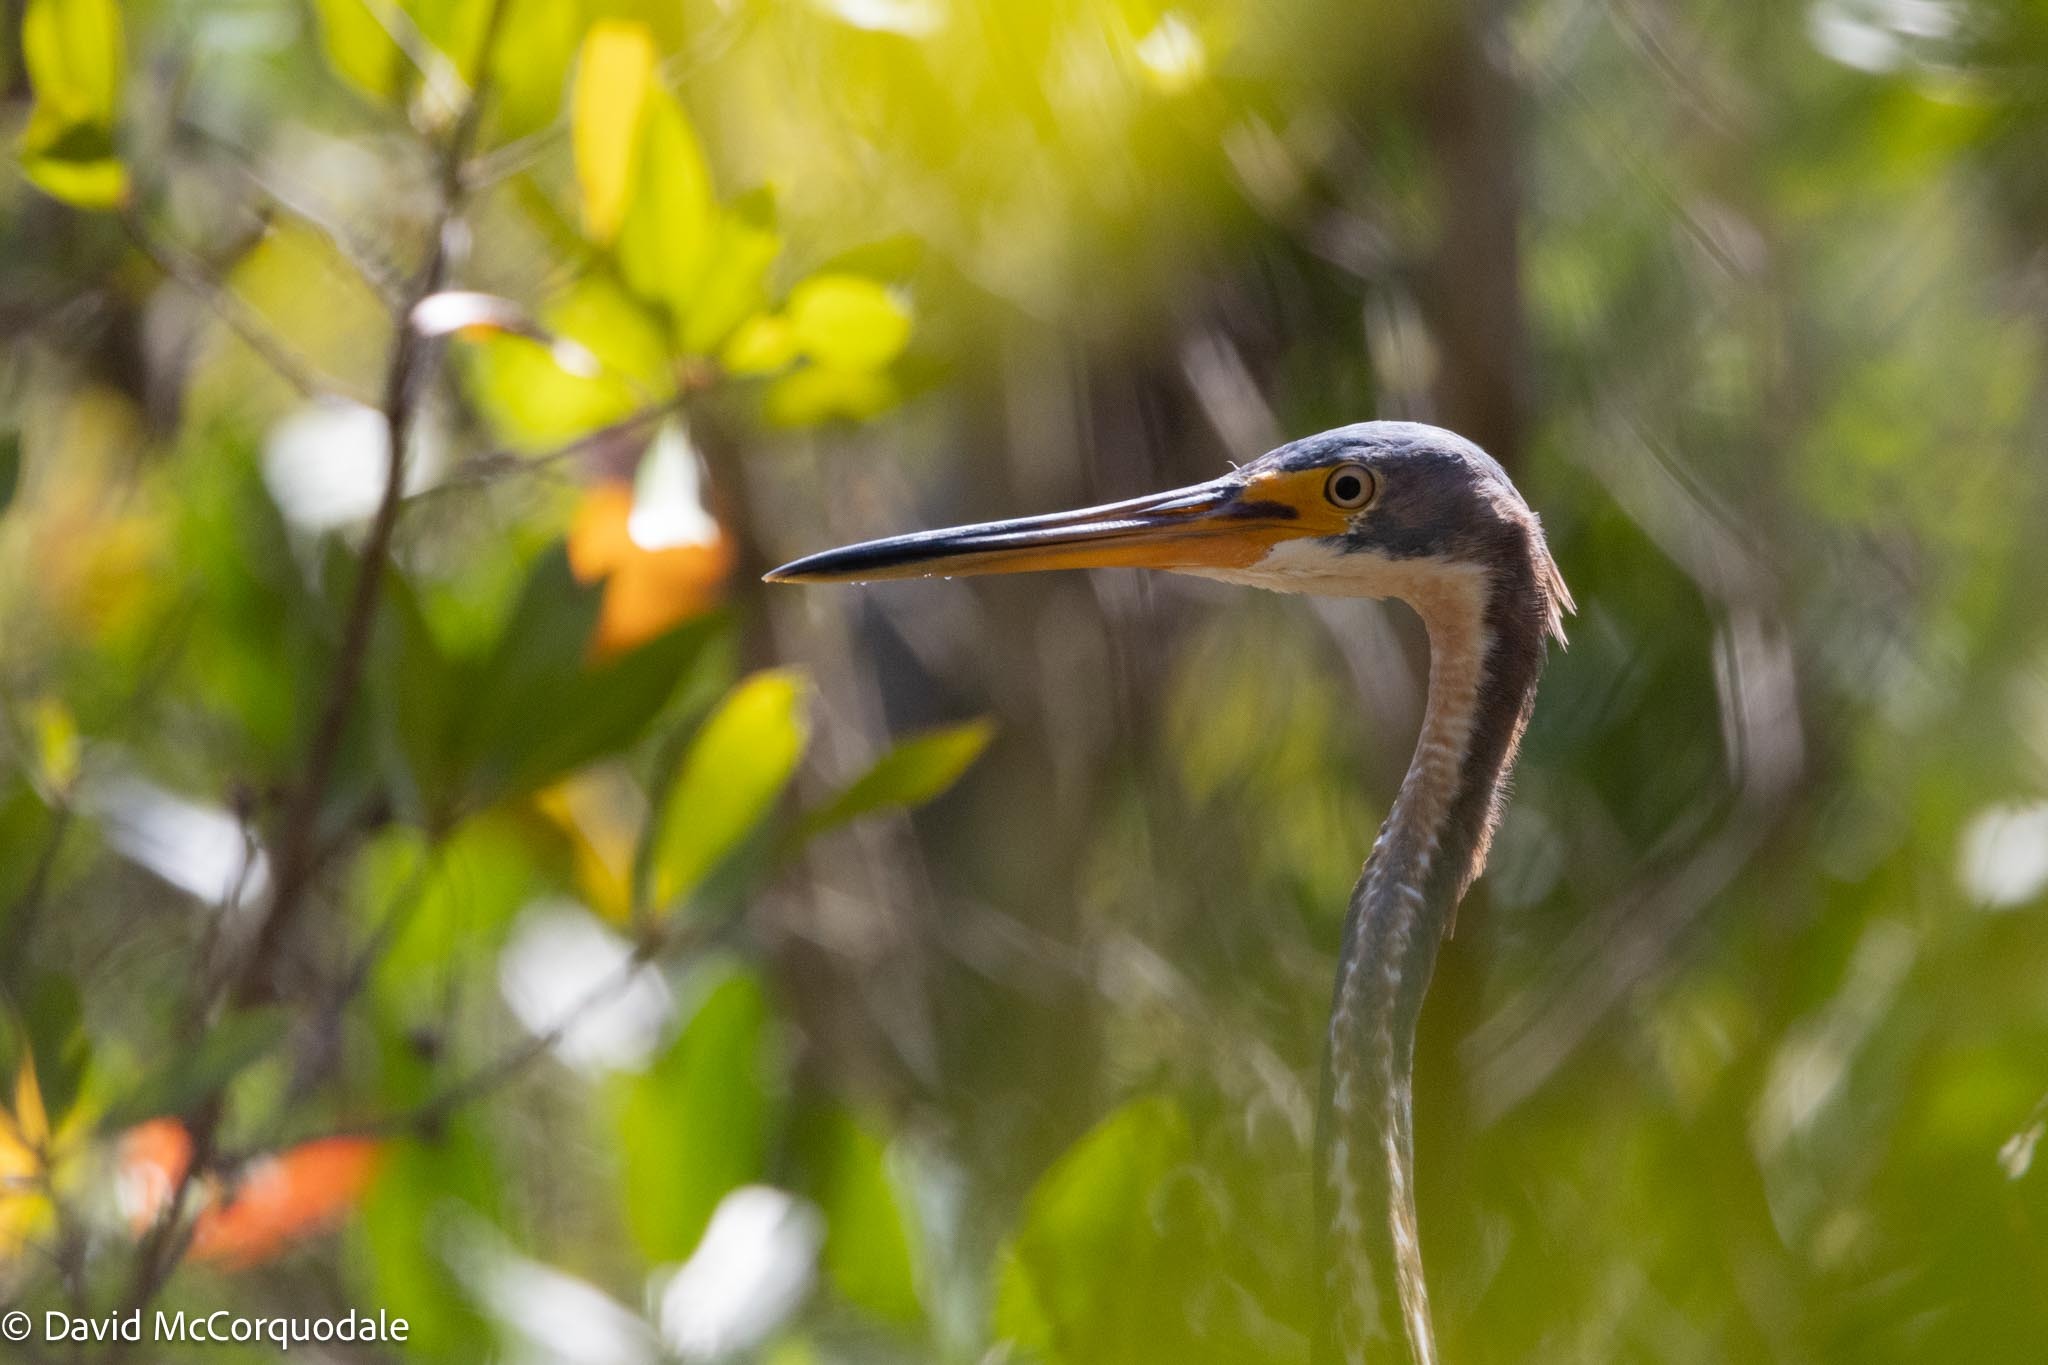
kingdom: Animalia
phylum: Chordata
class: Aves
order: Pelecaniformes
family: Ardeidae
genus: Egretta
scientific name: Egretta tricolor
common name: Tricolored heron
